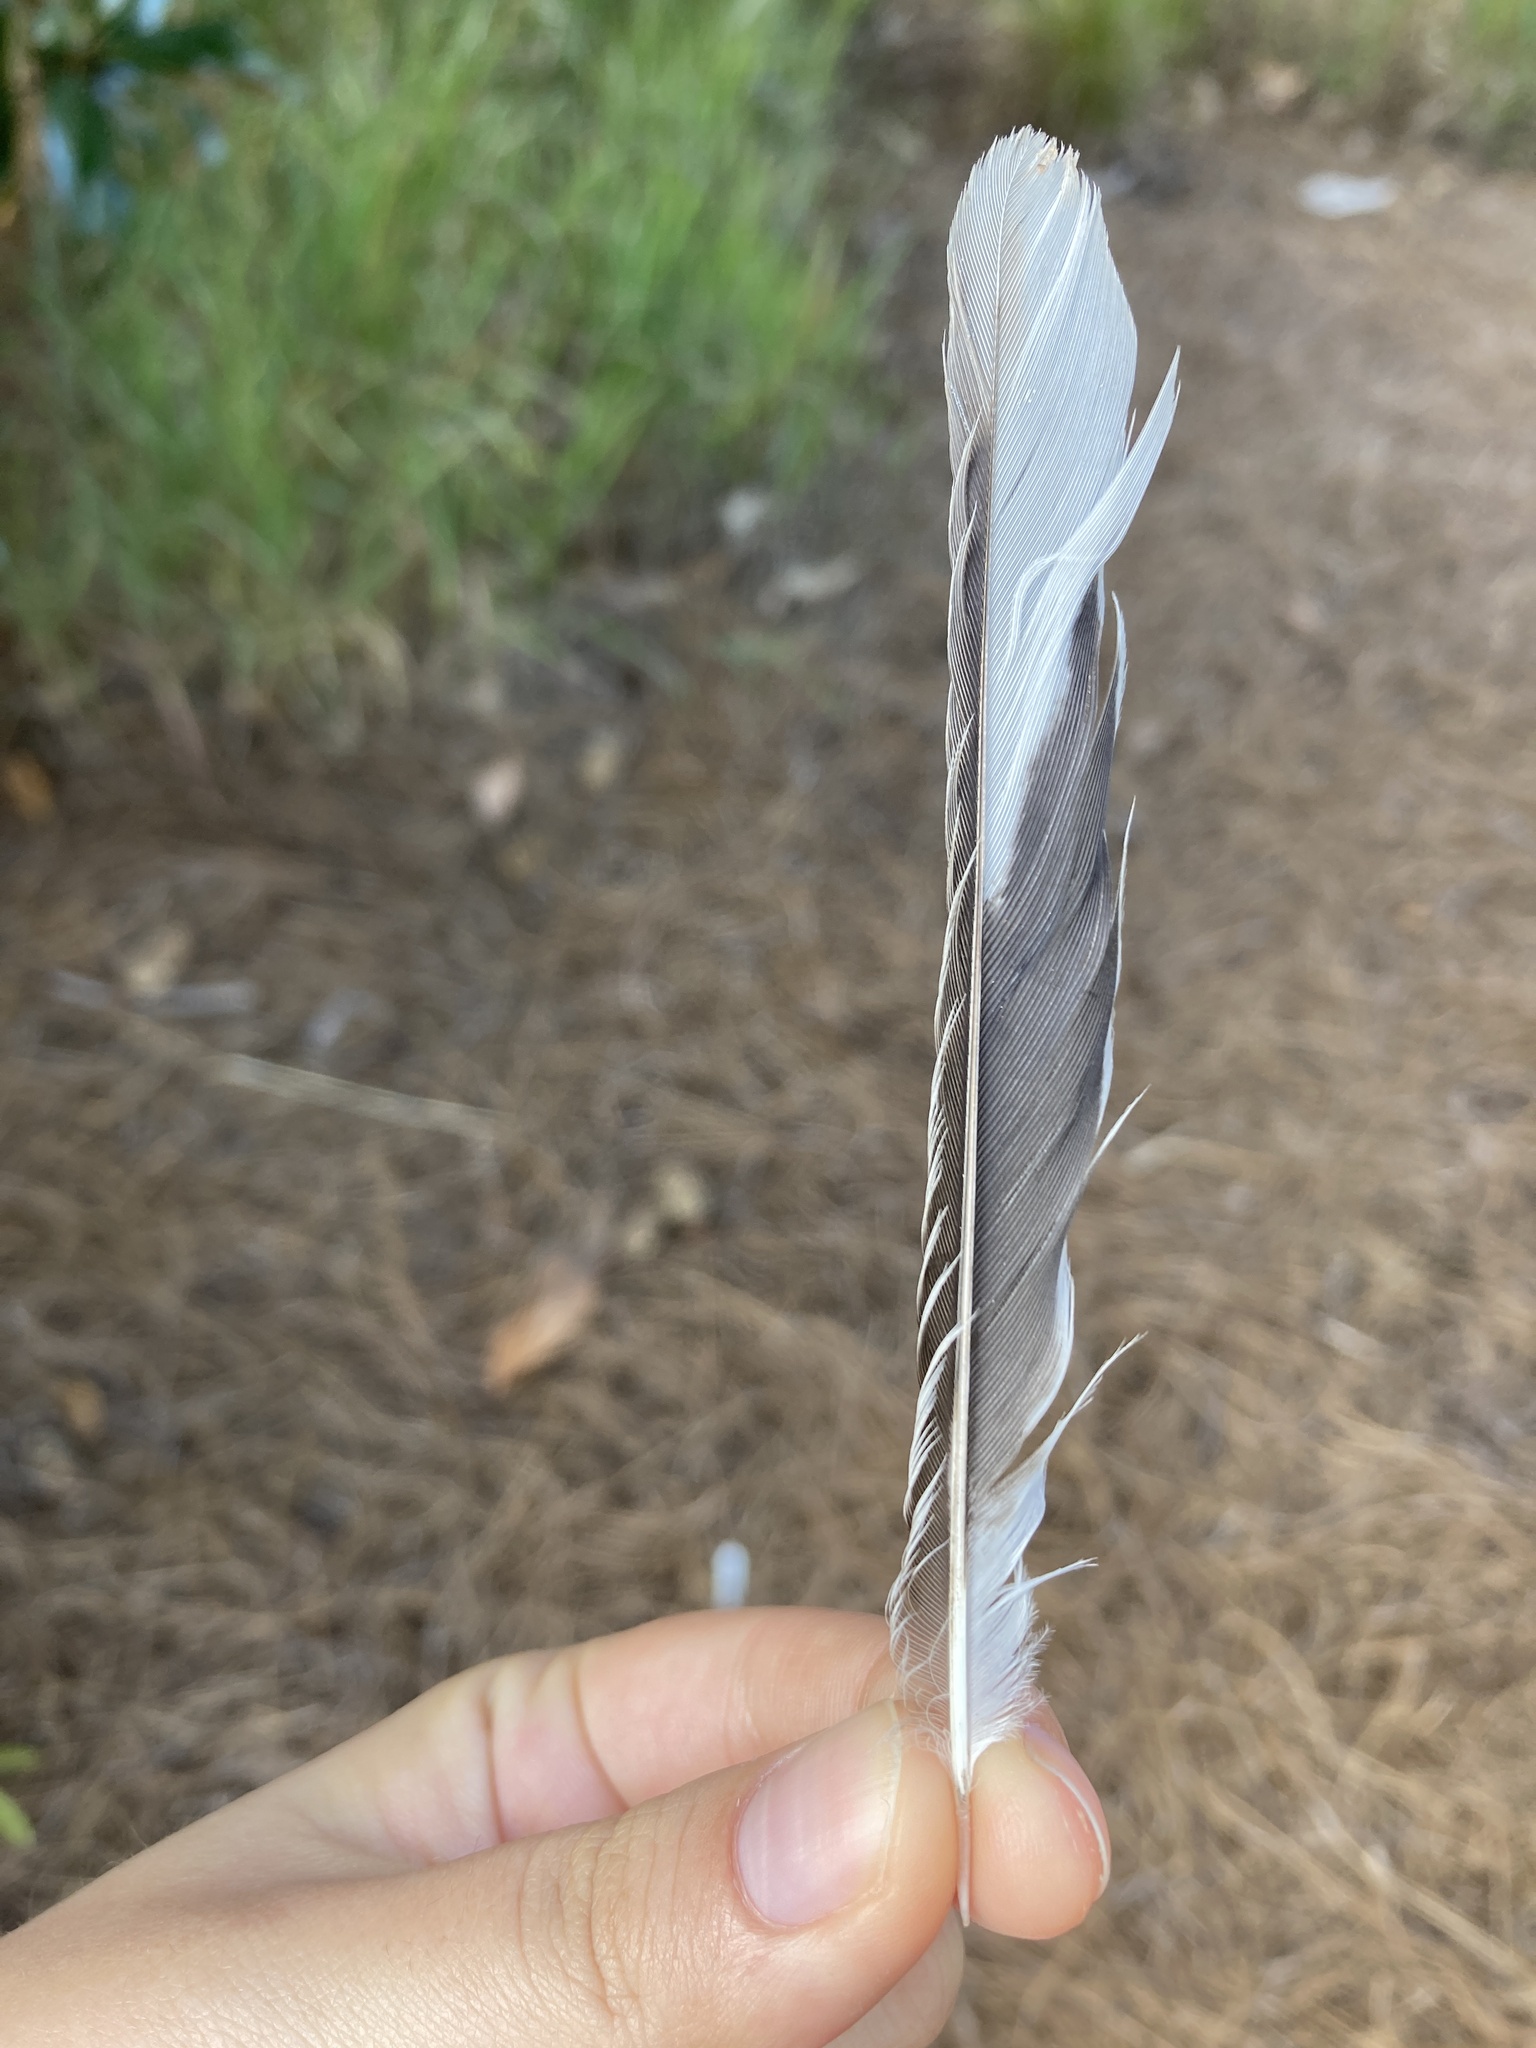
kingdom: Animalia
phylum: Chordata
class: Aves
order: Passeriformes
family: Mimidae
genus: Mimus
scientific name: Mimus polyglottos
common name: Northern mockingbird
